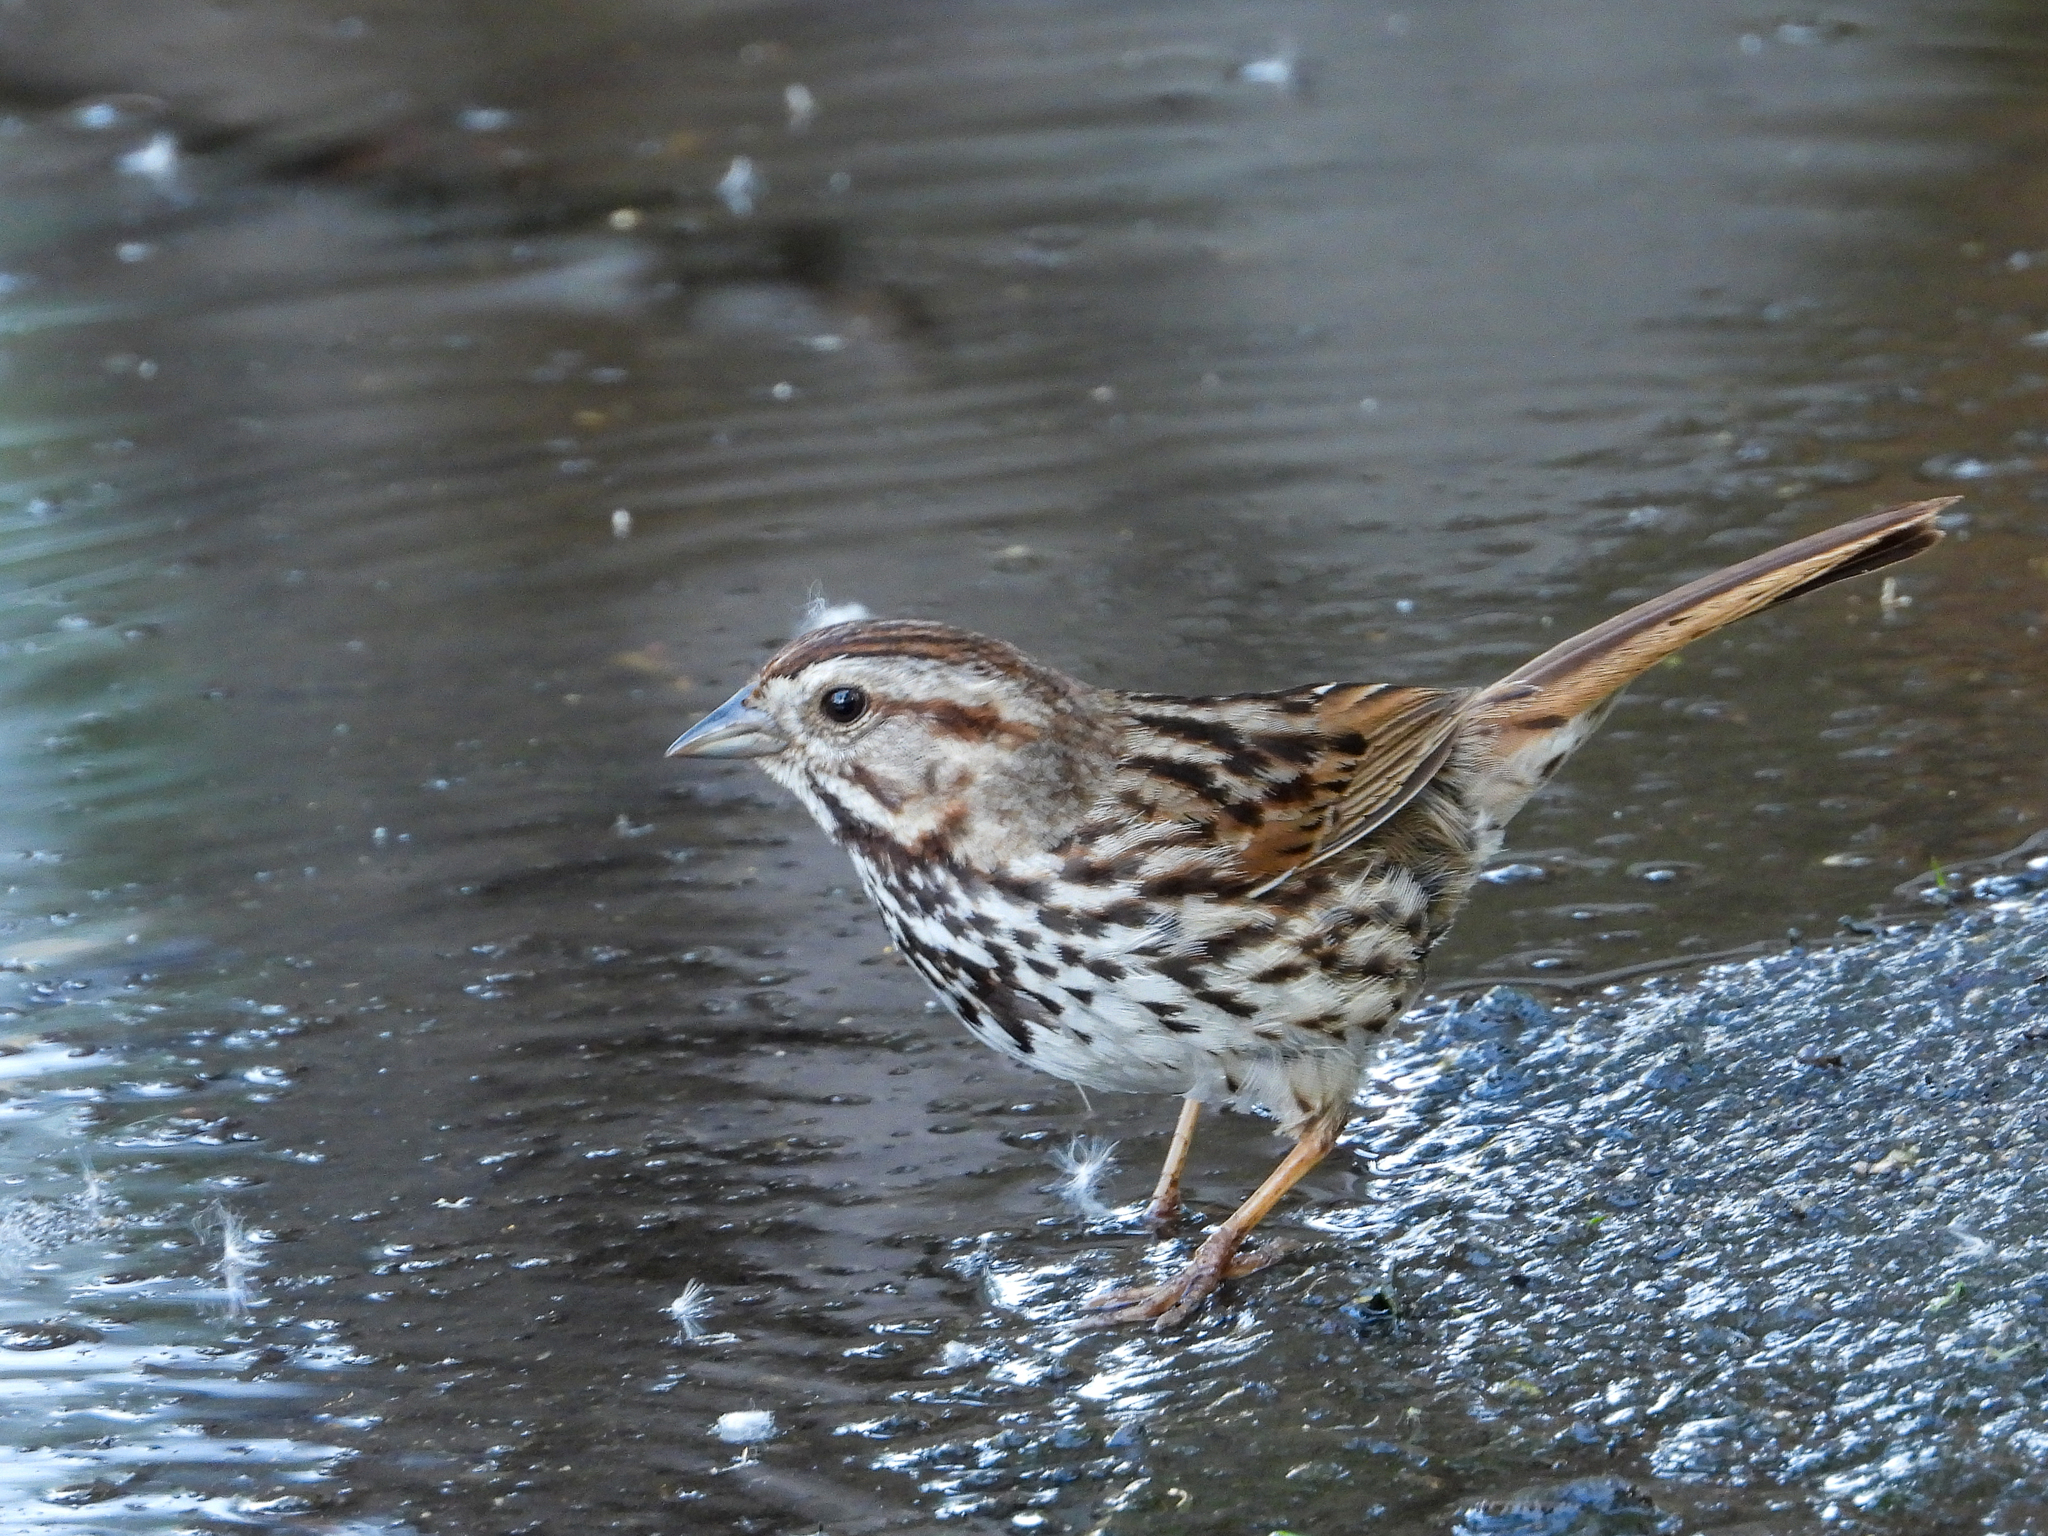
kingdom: Animalia
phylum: Chordata
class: Aves
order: Passeriformes
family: Passerellidae
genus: Melospiza
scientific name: Melospiza melodia
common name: Song sparrow
